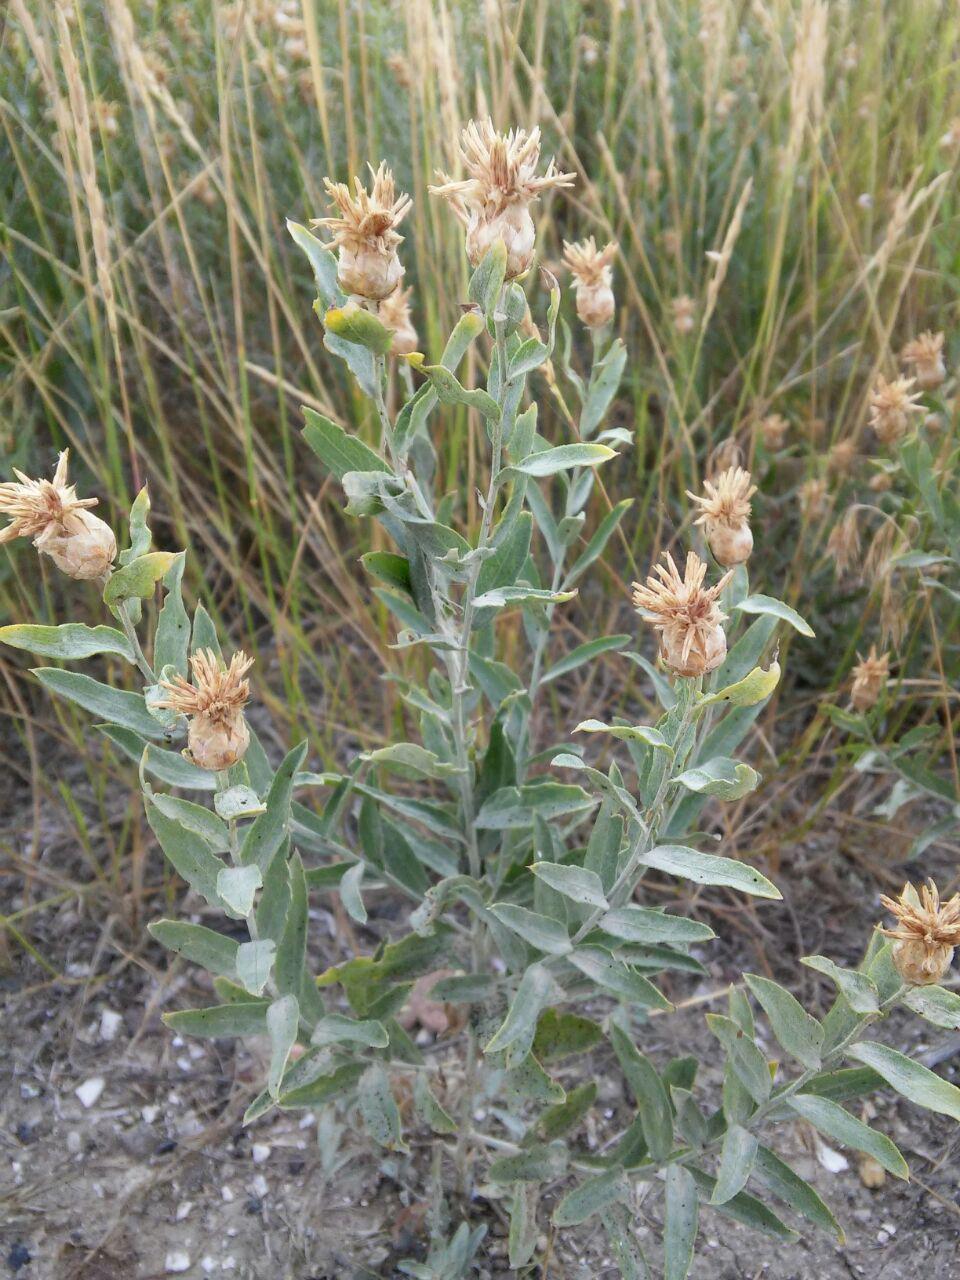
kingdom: Plantae
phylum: Tracheophyta
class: Magnoliopsida
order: Asterales
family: Asteraceae
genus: Leuzea
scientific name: Leuzea repens
